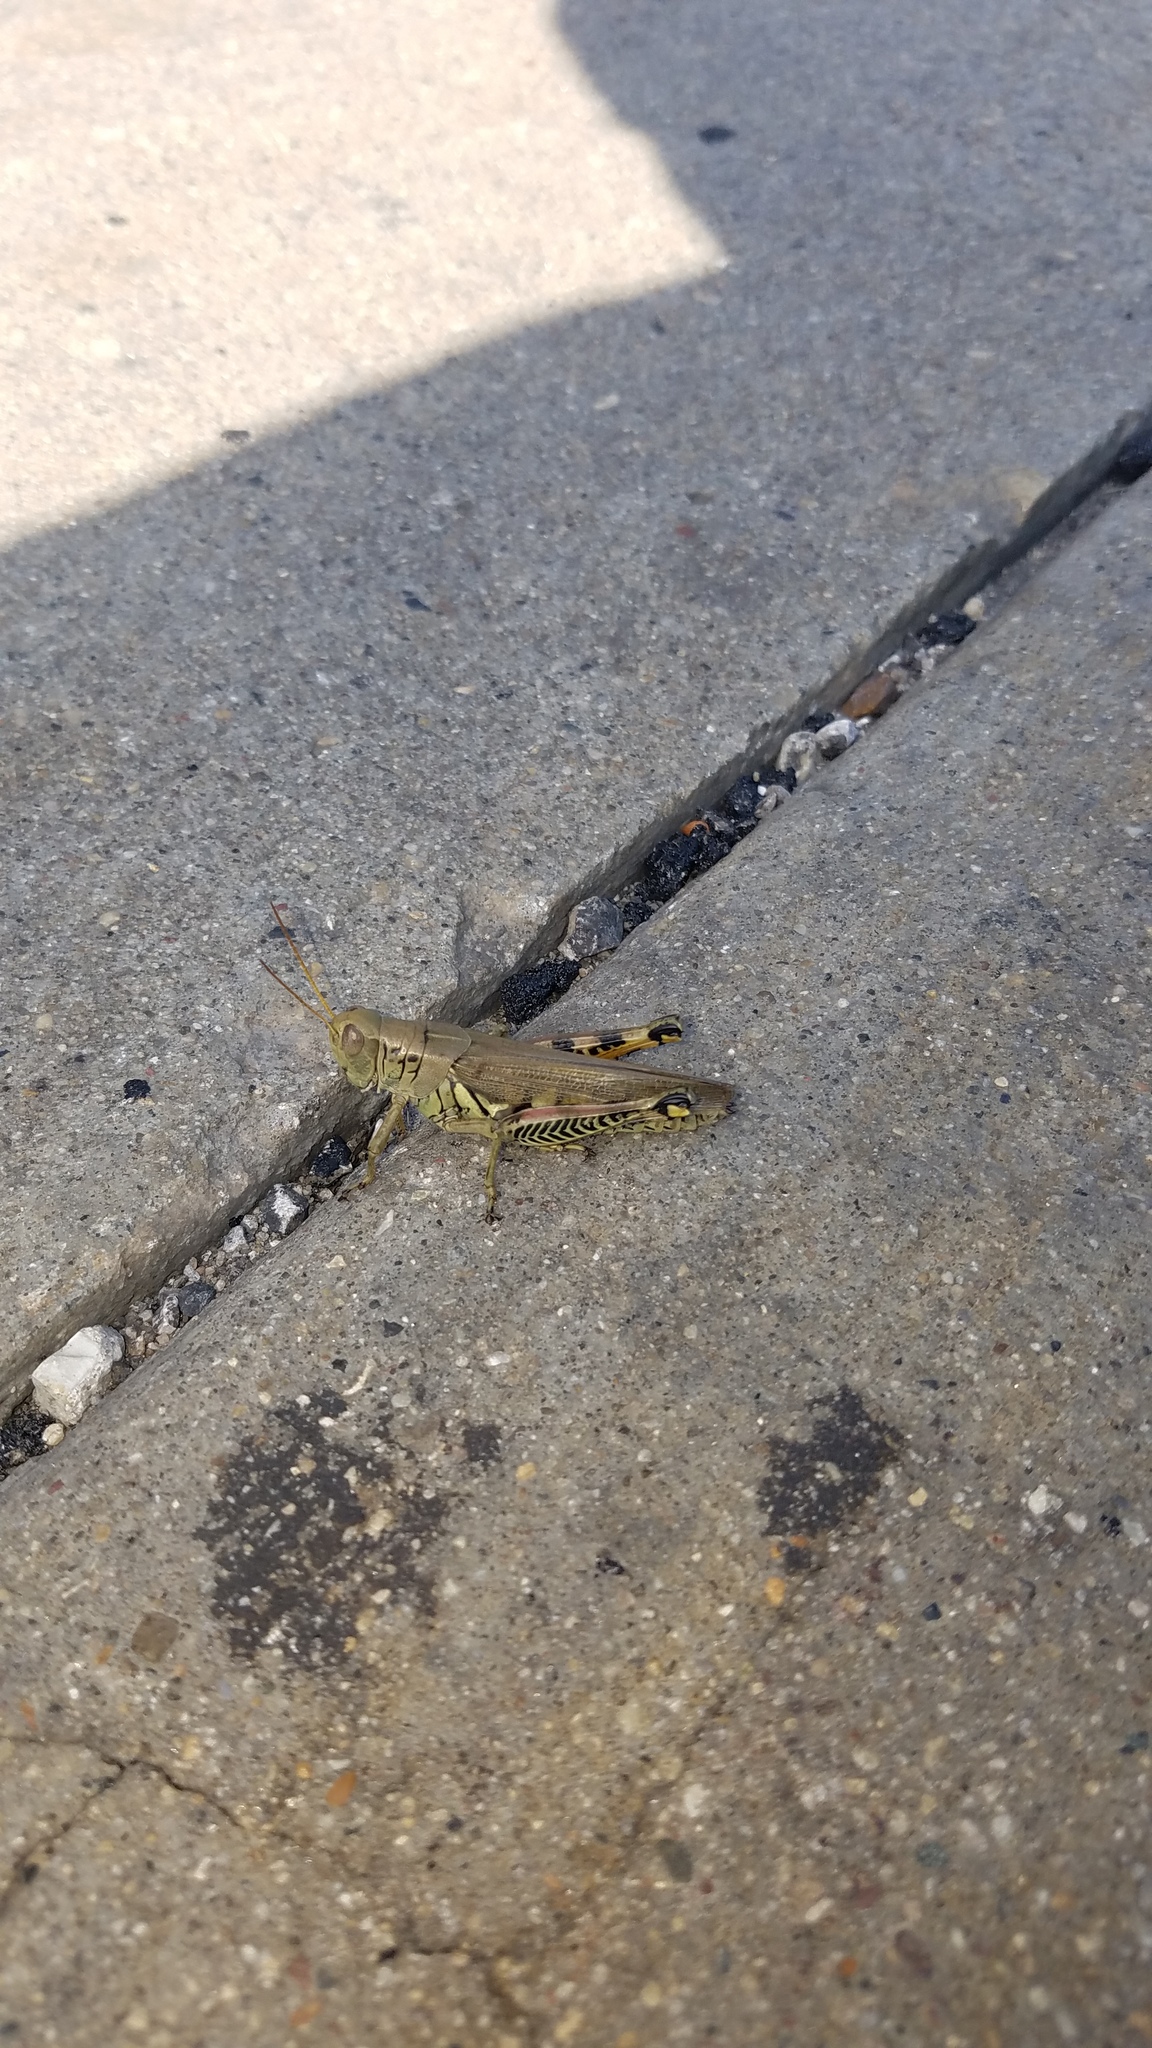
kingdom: Animalia
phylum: Arthropoda
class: Insecta
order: Orthoptera
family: Acrididae
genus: Melanoplus
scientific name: Melanoplus differentialis
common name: Differential grasshopper
